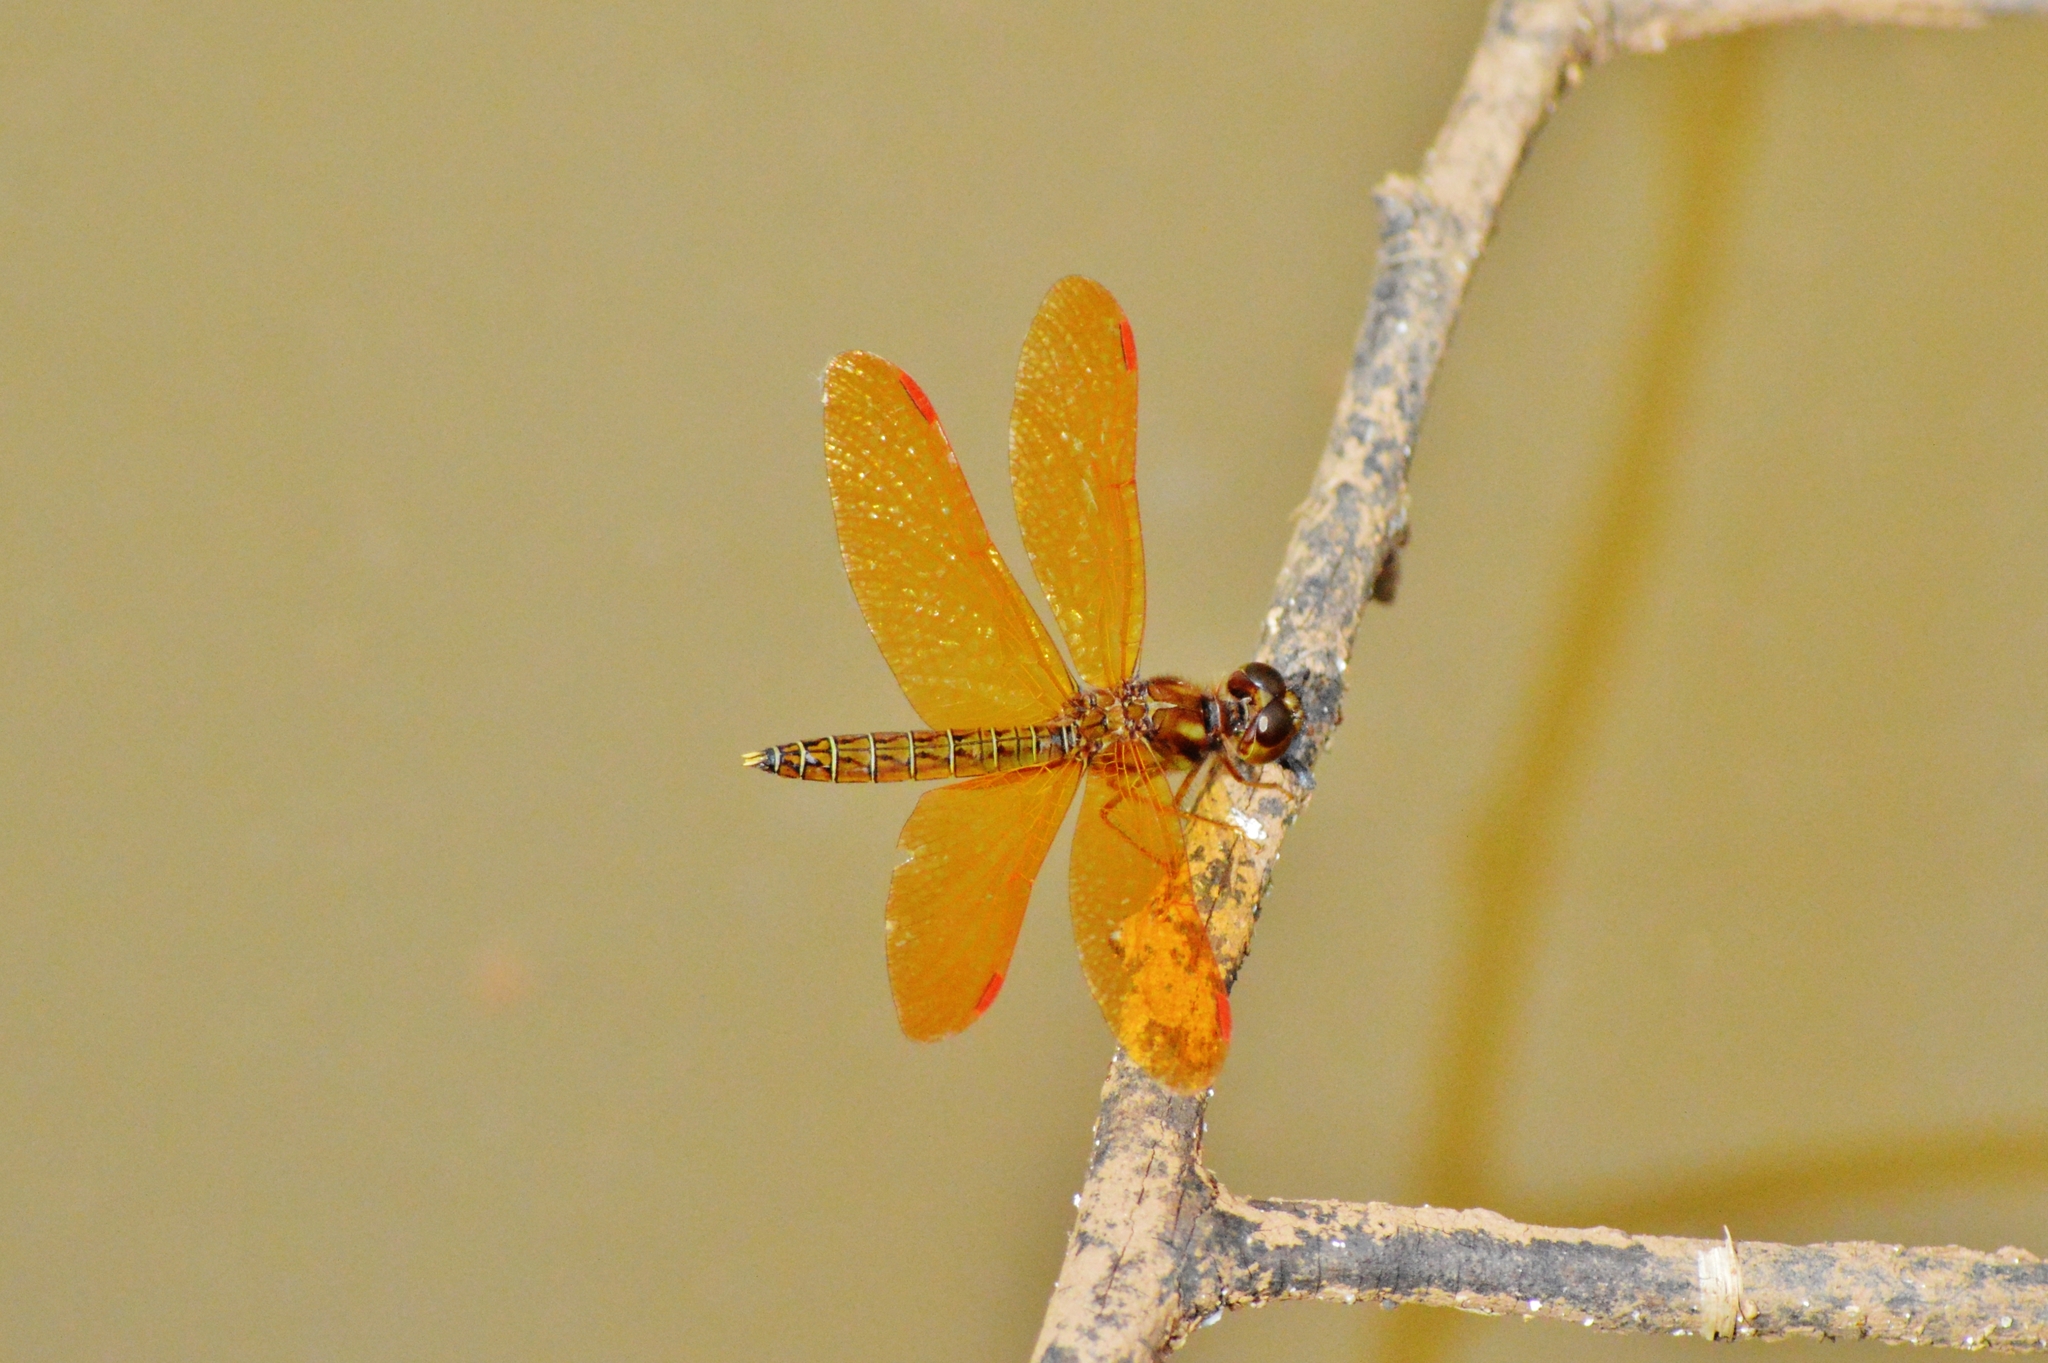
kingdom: Animalia
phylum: Arthropoda
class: Insecta
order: Odonata
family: Libellulidae
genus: Perithemis
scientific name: Perithemis tenera
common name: Eastern amberwing
